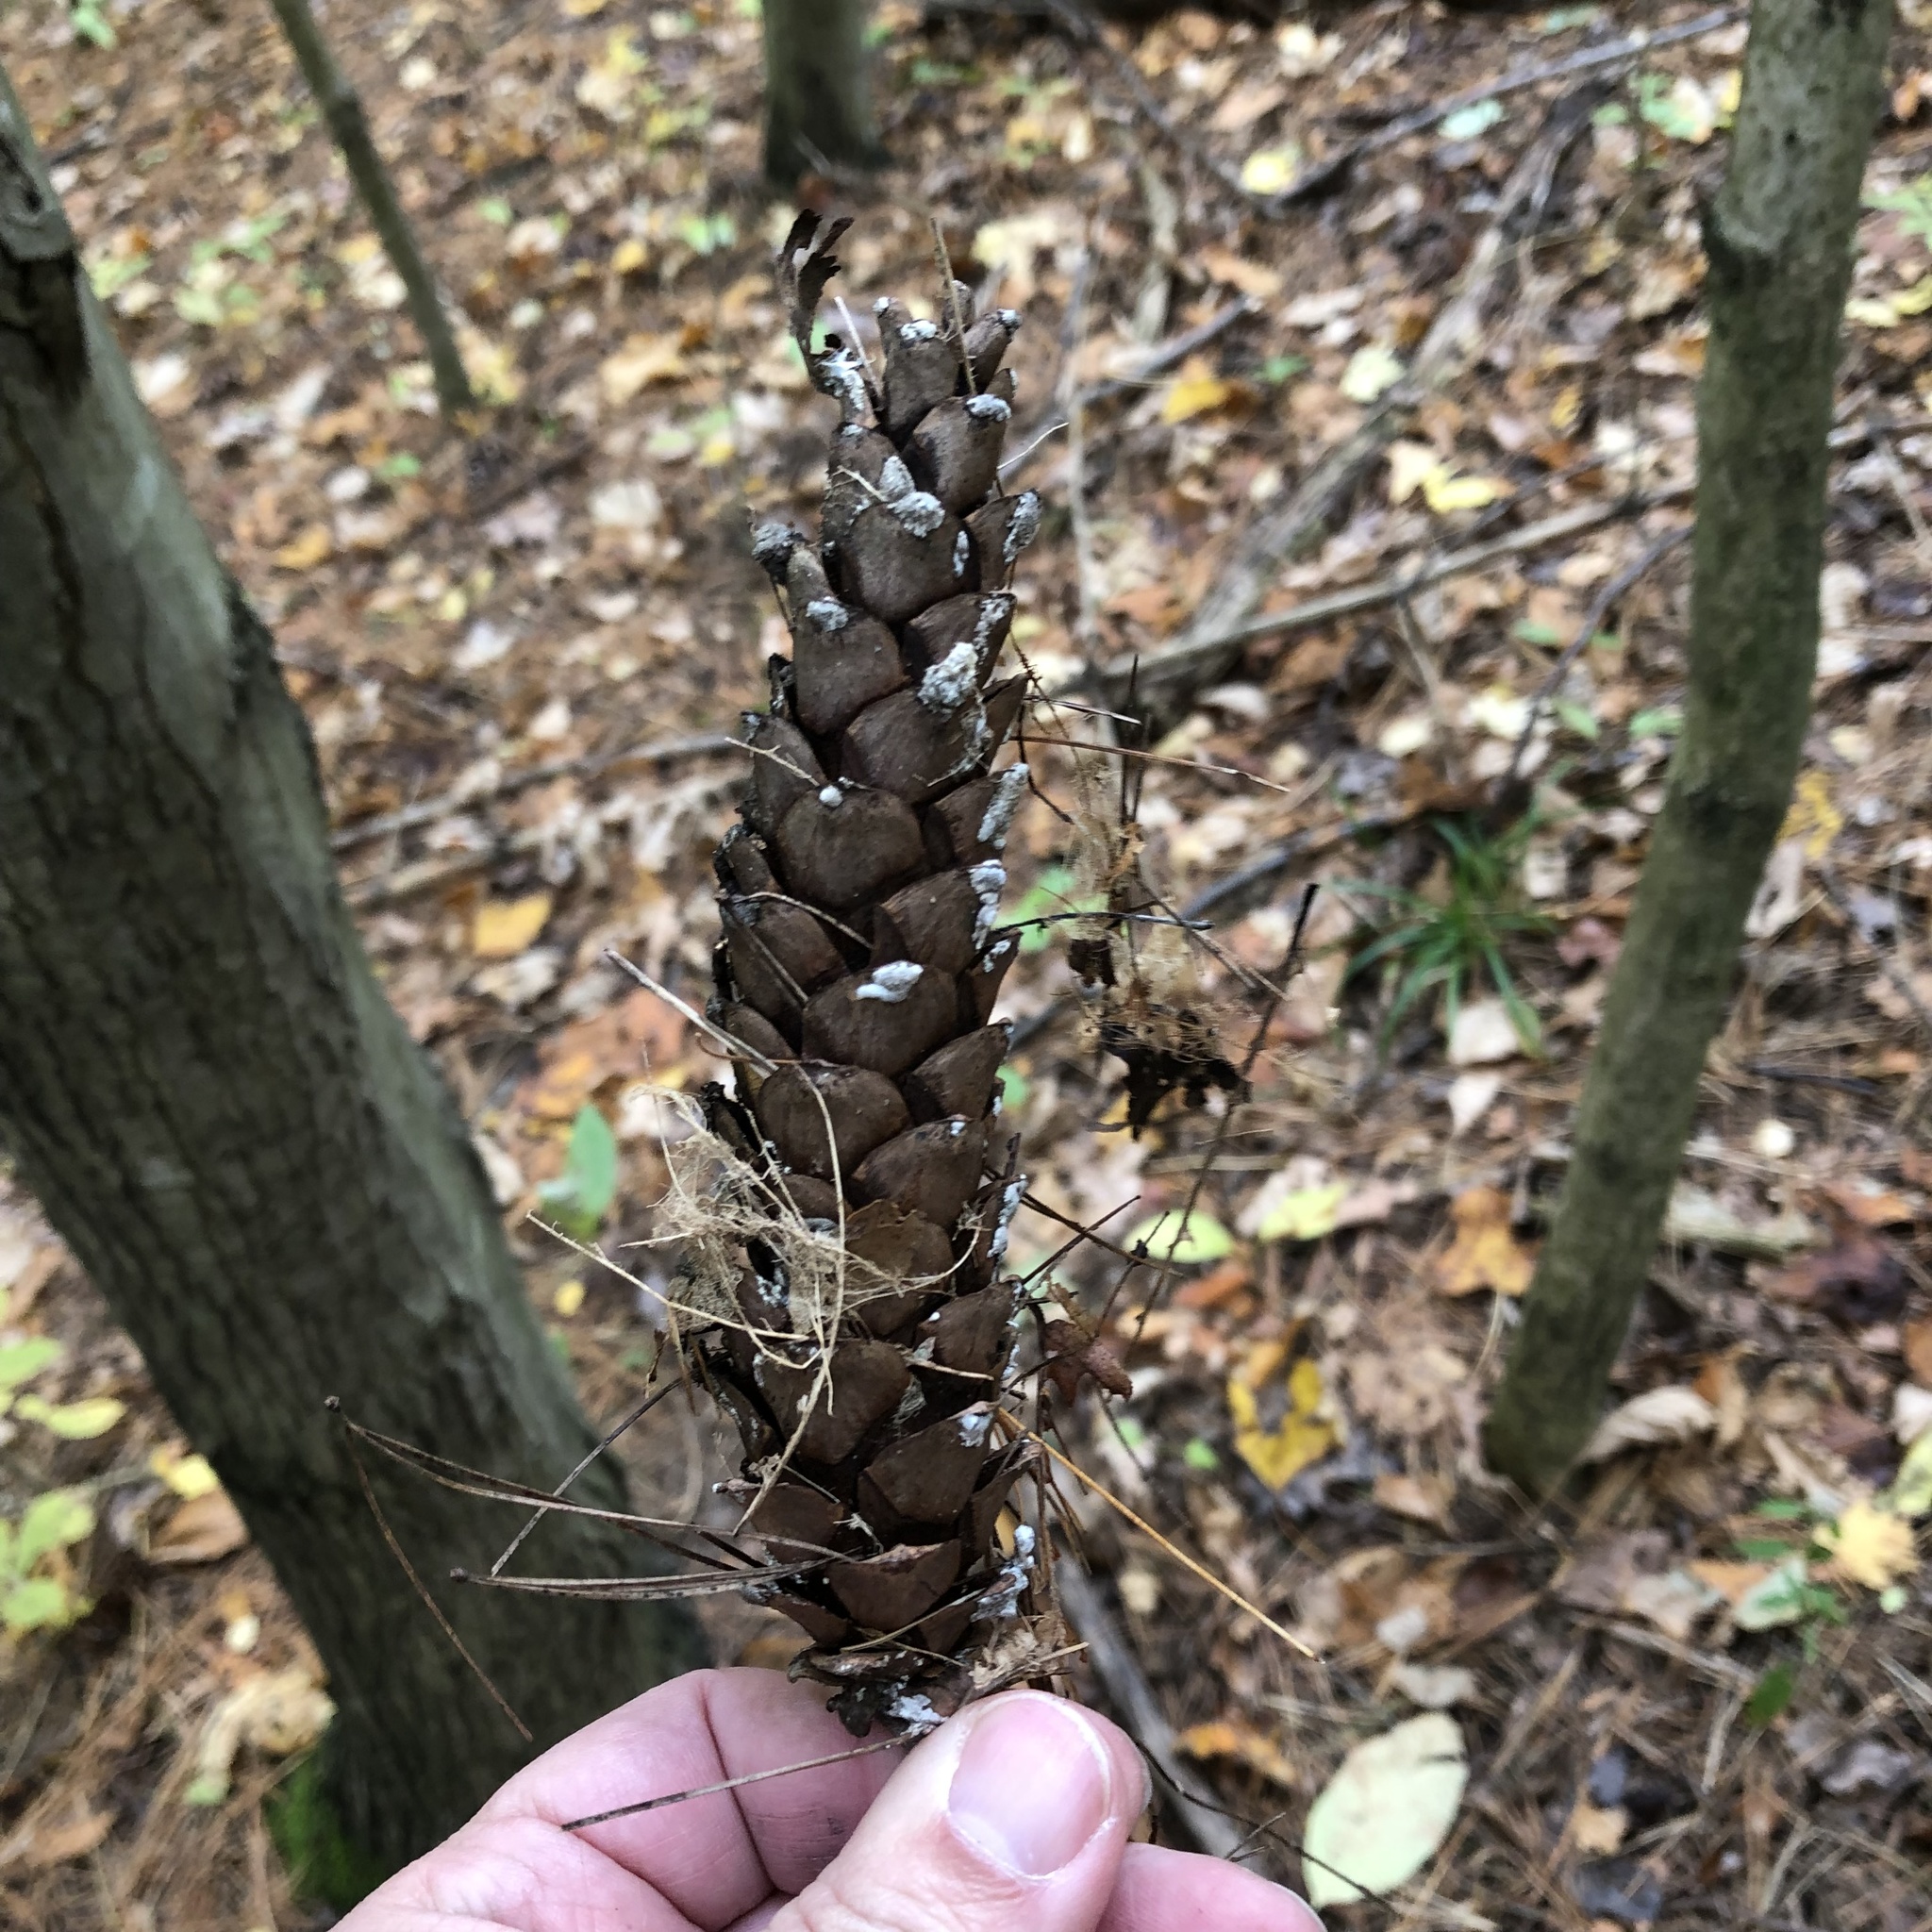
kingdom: Plantae
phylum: Tracheophyta
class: Pinopsida
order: Pinales
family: Pinaceae
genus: Pinus
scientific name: Pinus strobus
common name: Weymouth pine
